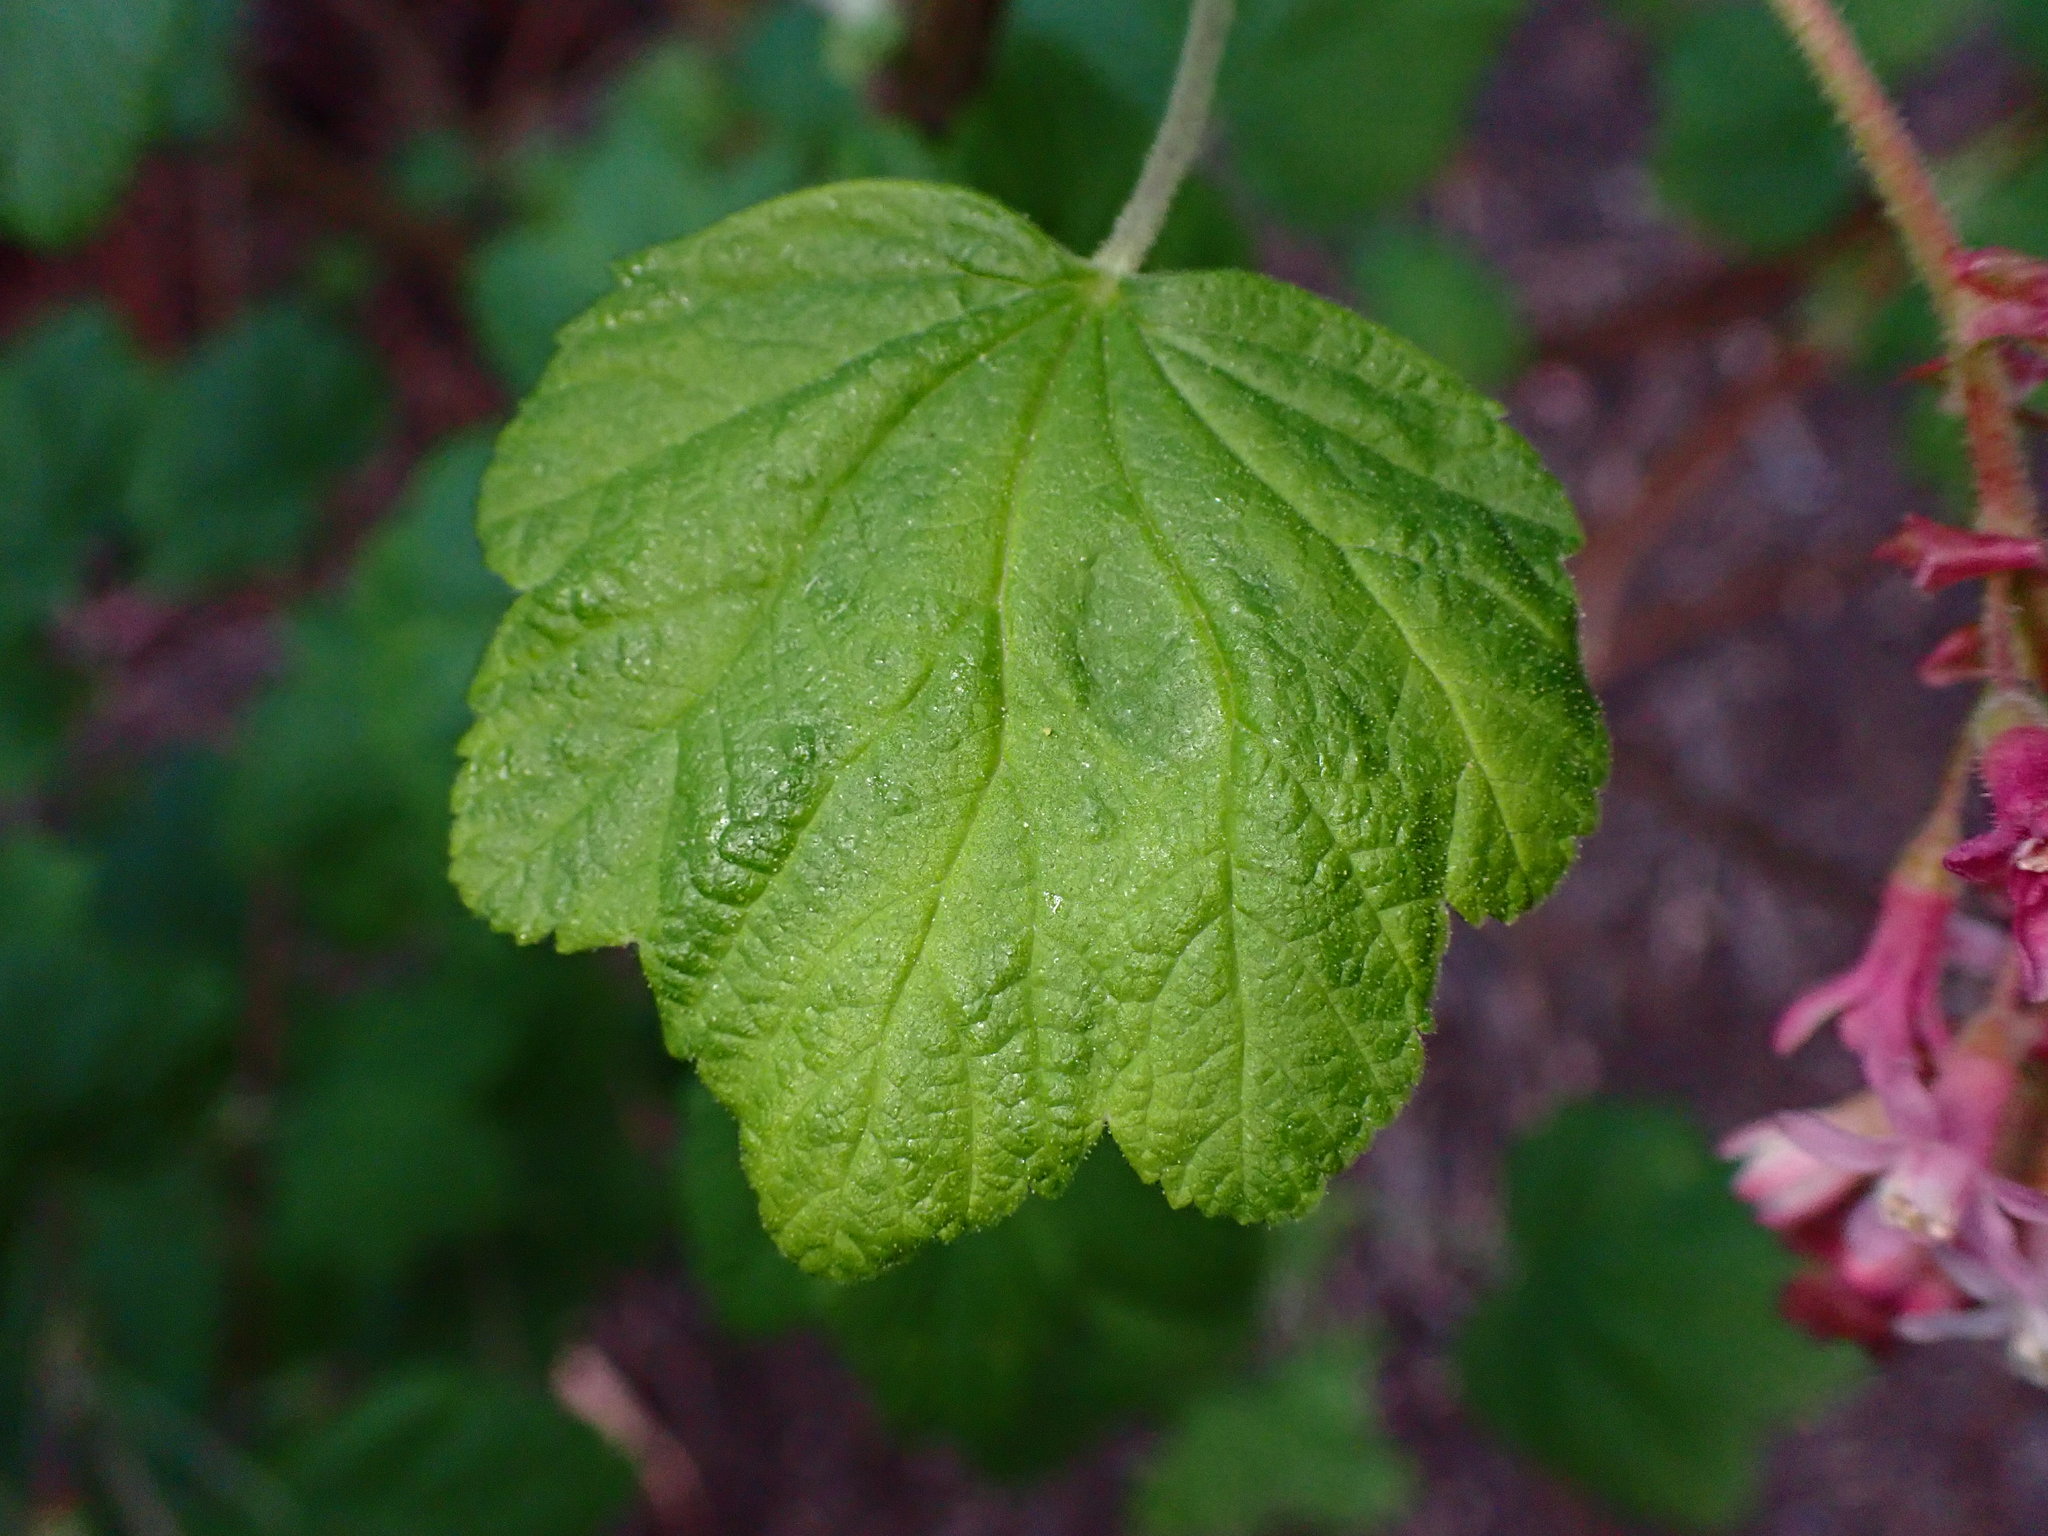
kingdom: Plantae
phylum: Tracheophyta
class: Magnoliopsida
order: Saxifragales
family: Grossulariaceae
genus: Ribes
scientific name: Ribes sanguineum
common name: Flowering currant
